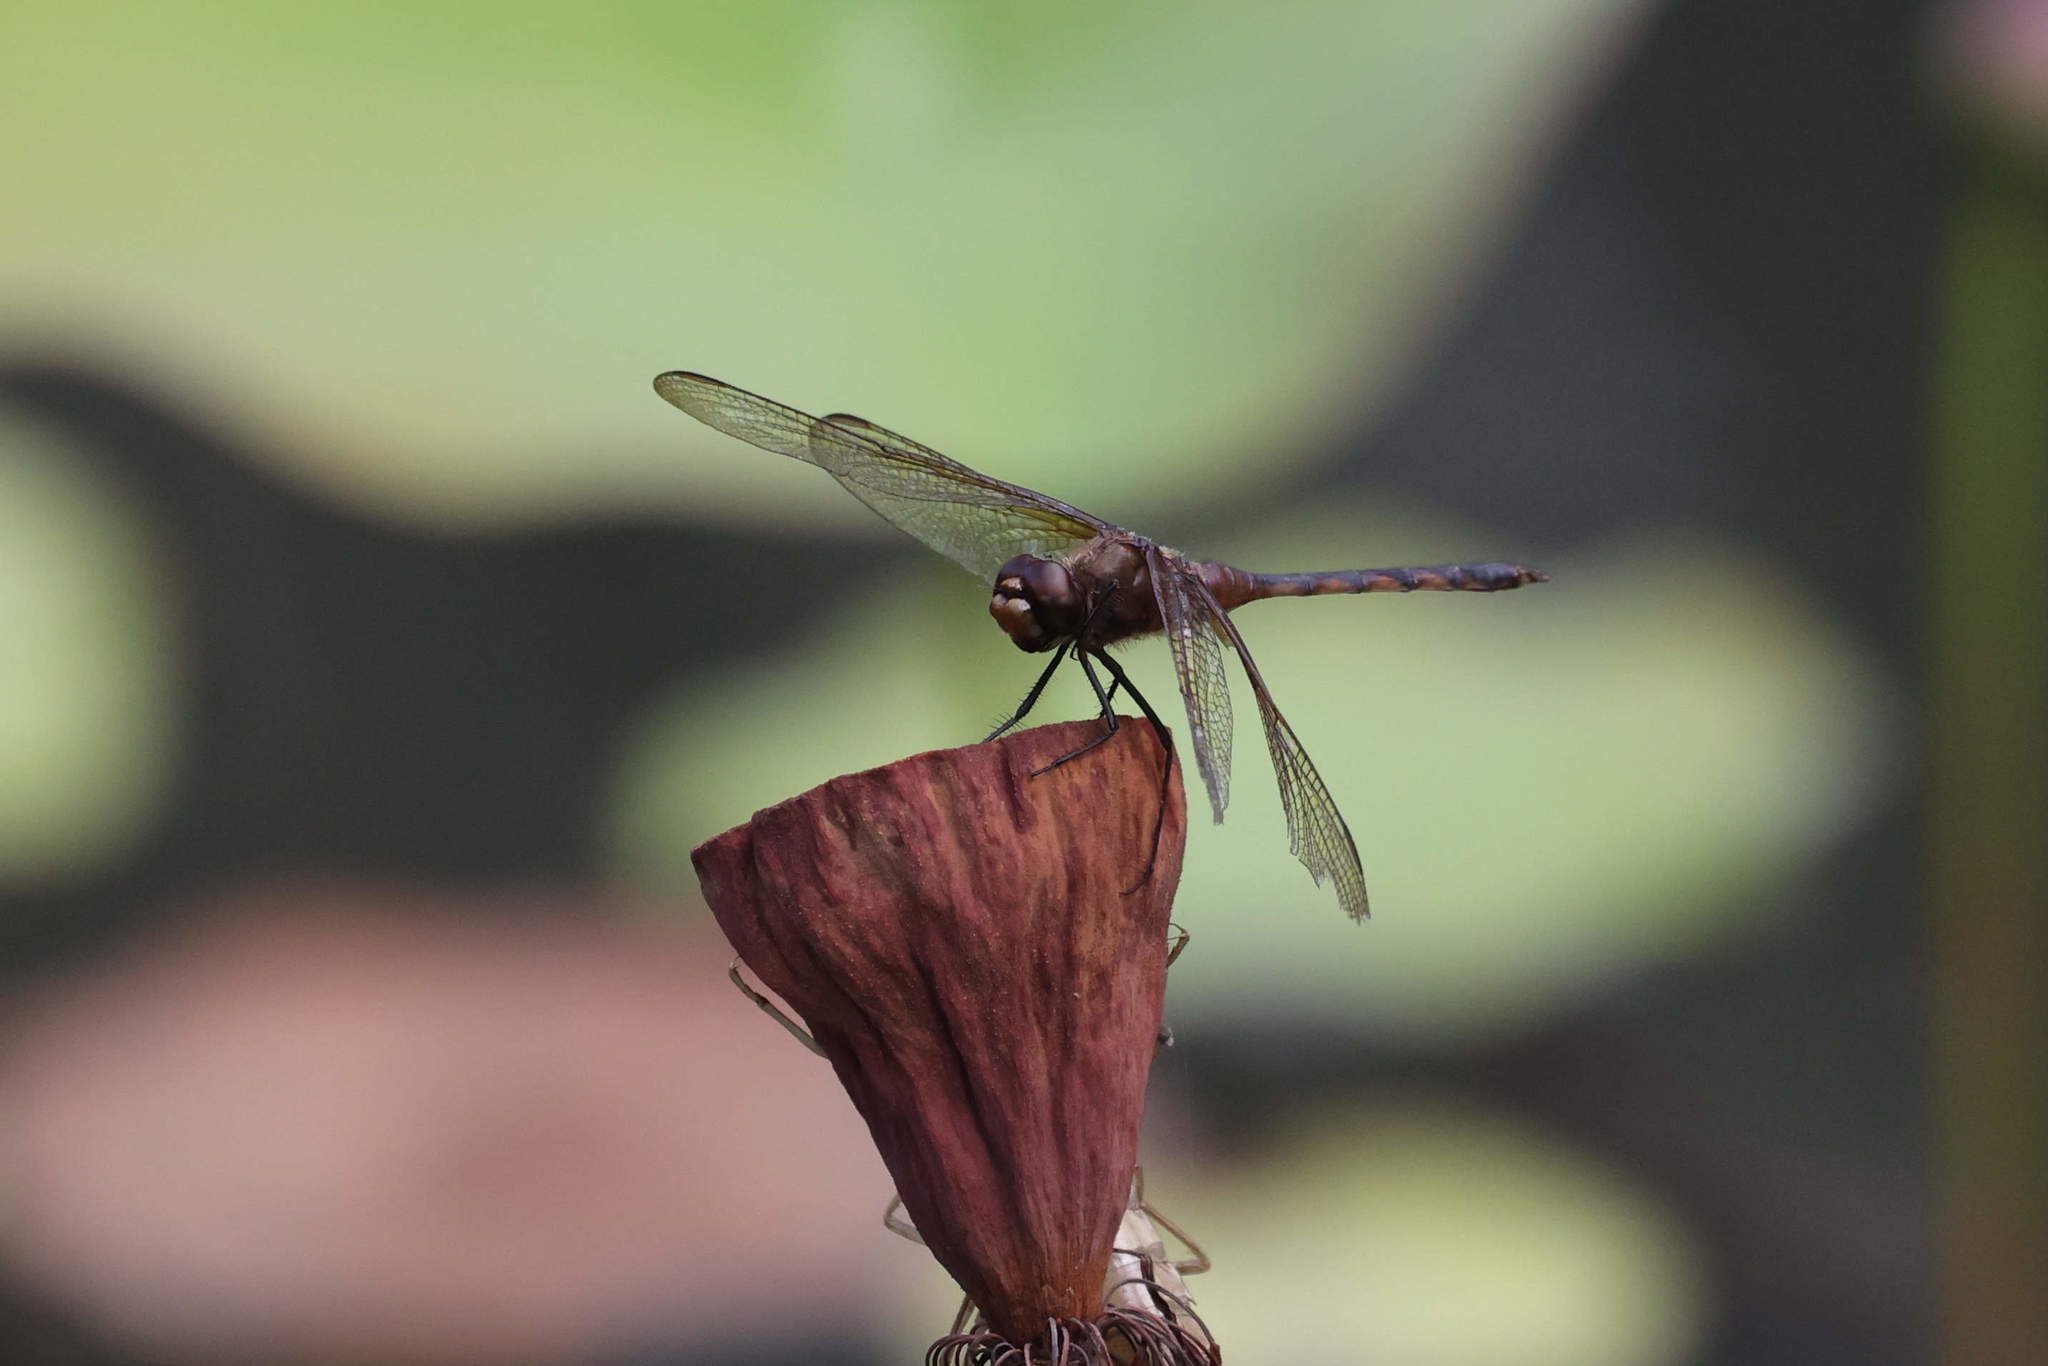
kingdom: Animalia
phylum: Arthropoda
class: Insecta
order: Odonata
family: Libellulidae
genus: Brachymesia
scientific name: Brachymesia herbida
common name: Tawny pennant
